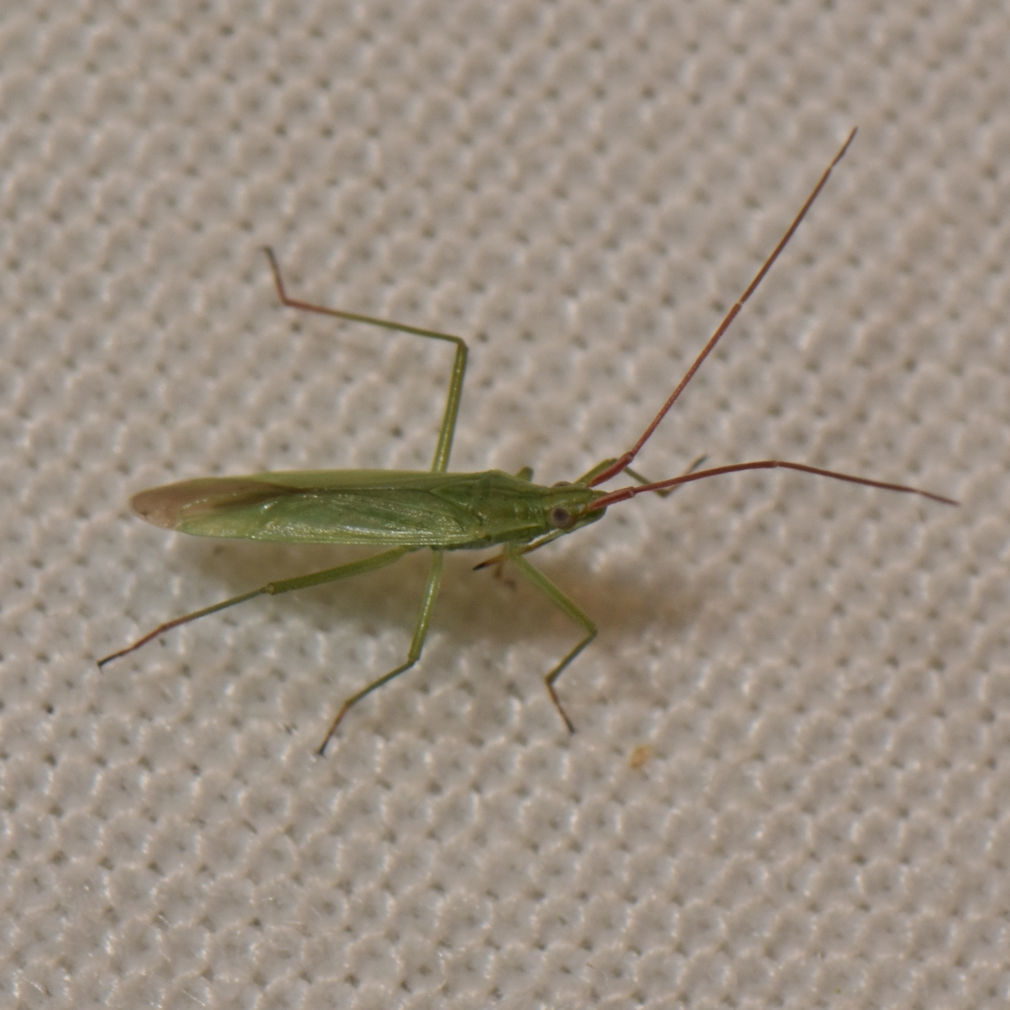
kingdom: Animalia
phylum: Arthropoda
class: Insecta
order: Hemiptera
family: Miridae
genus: Trigonotylus
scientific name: Trigonotylus caelestialium
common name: Rice leaf bug
